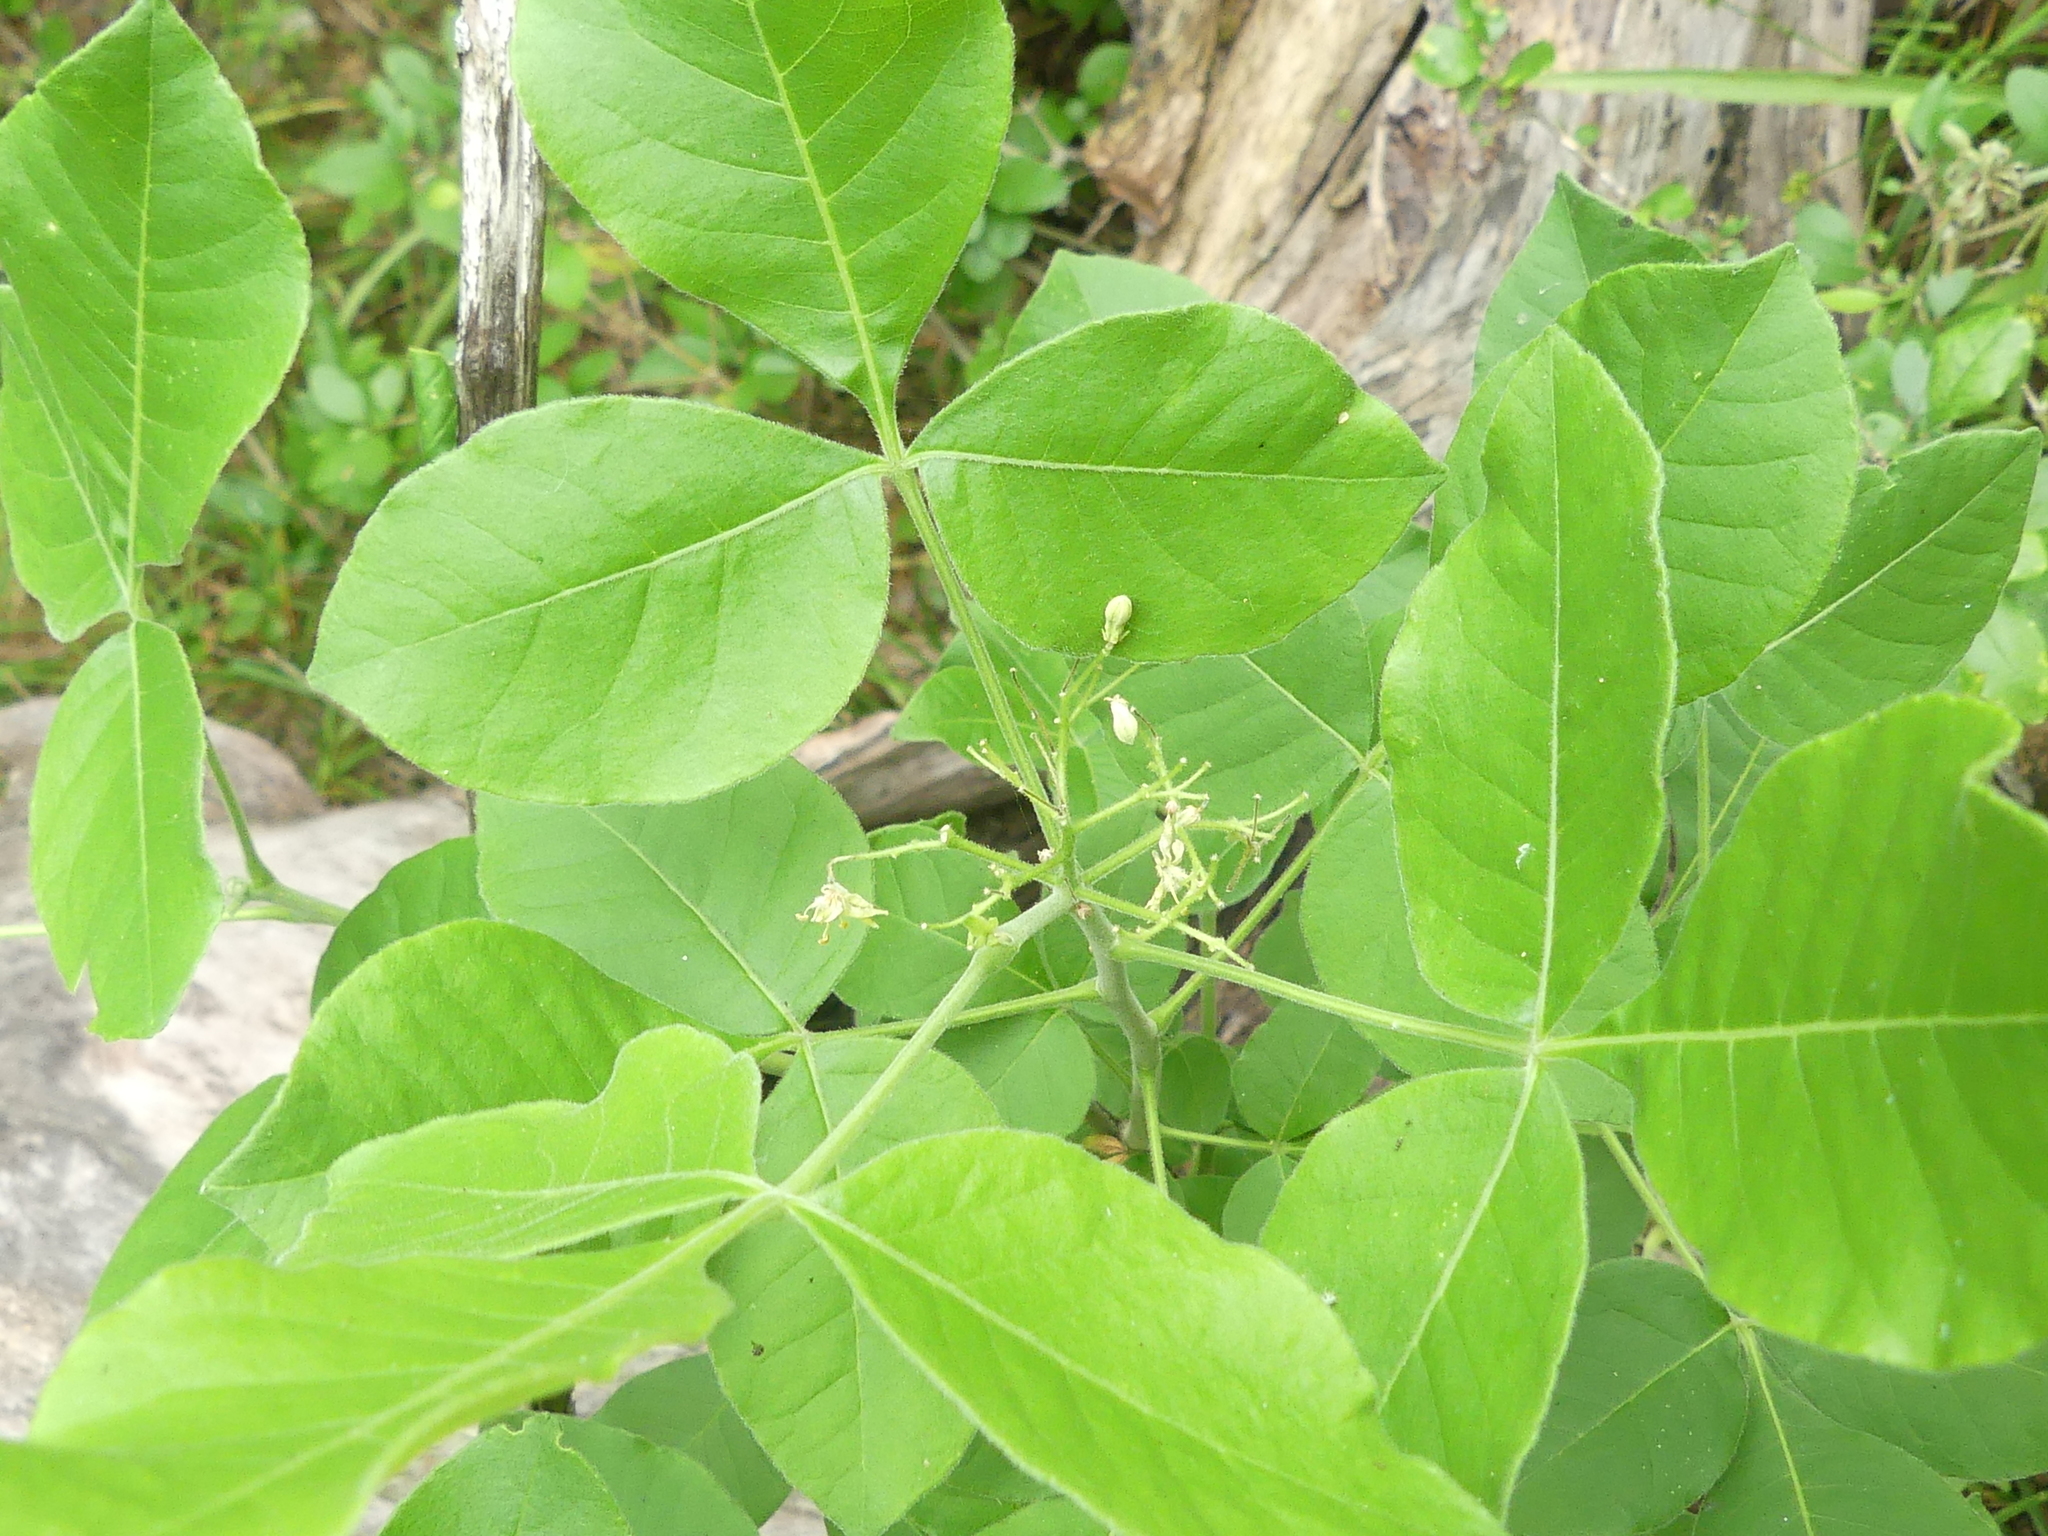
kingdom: Plantae
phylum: Tracheophyta
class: Magnoliopsida
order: Sapindales
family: Rutaceae
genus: Ptelea
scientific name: Ptelea trifoliata
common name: Common hop-tree
